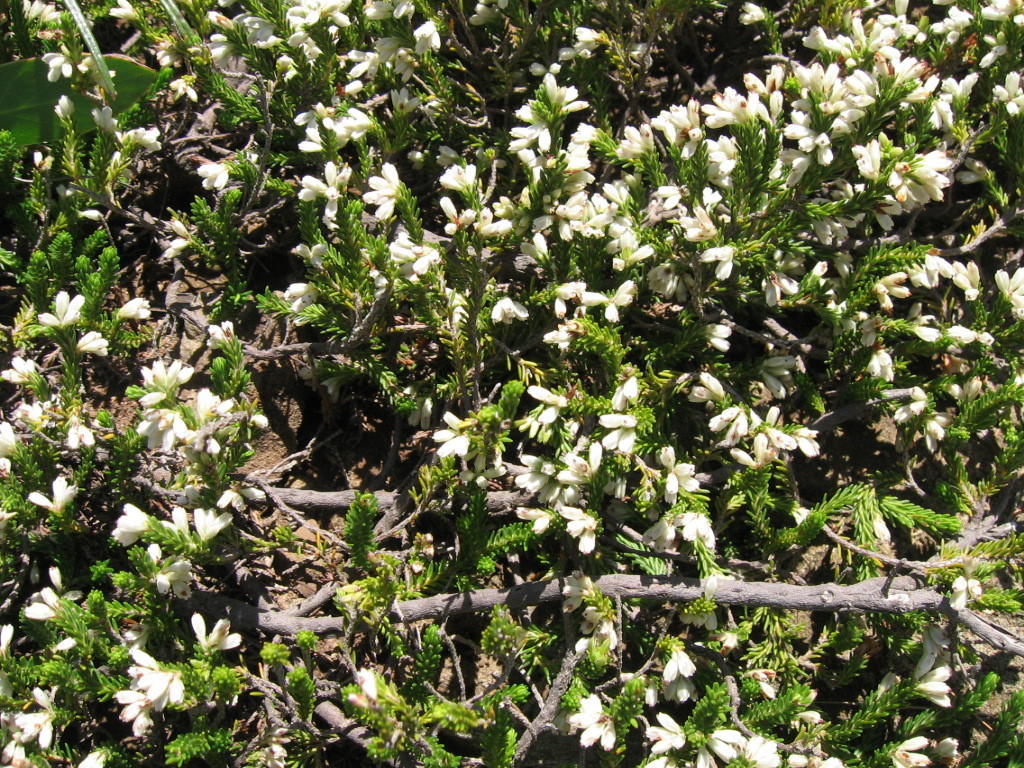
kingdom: Plantae
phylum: Tracheophyta
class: Magnoliopsida
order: Ericales
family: Ericaceae
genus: Erica
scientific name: Erica caffrorum
